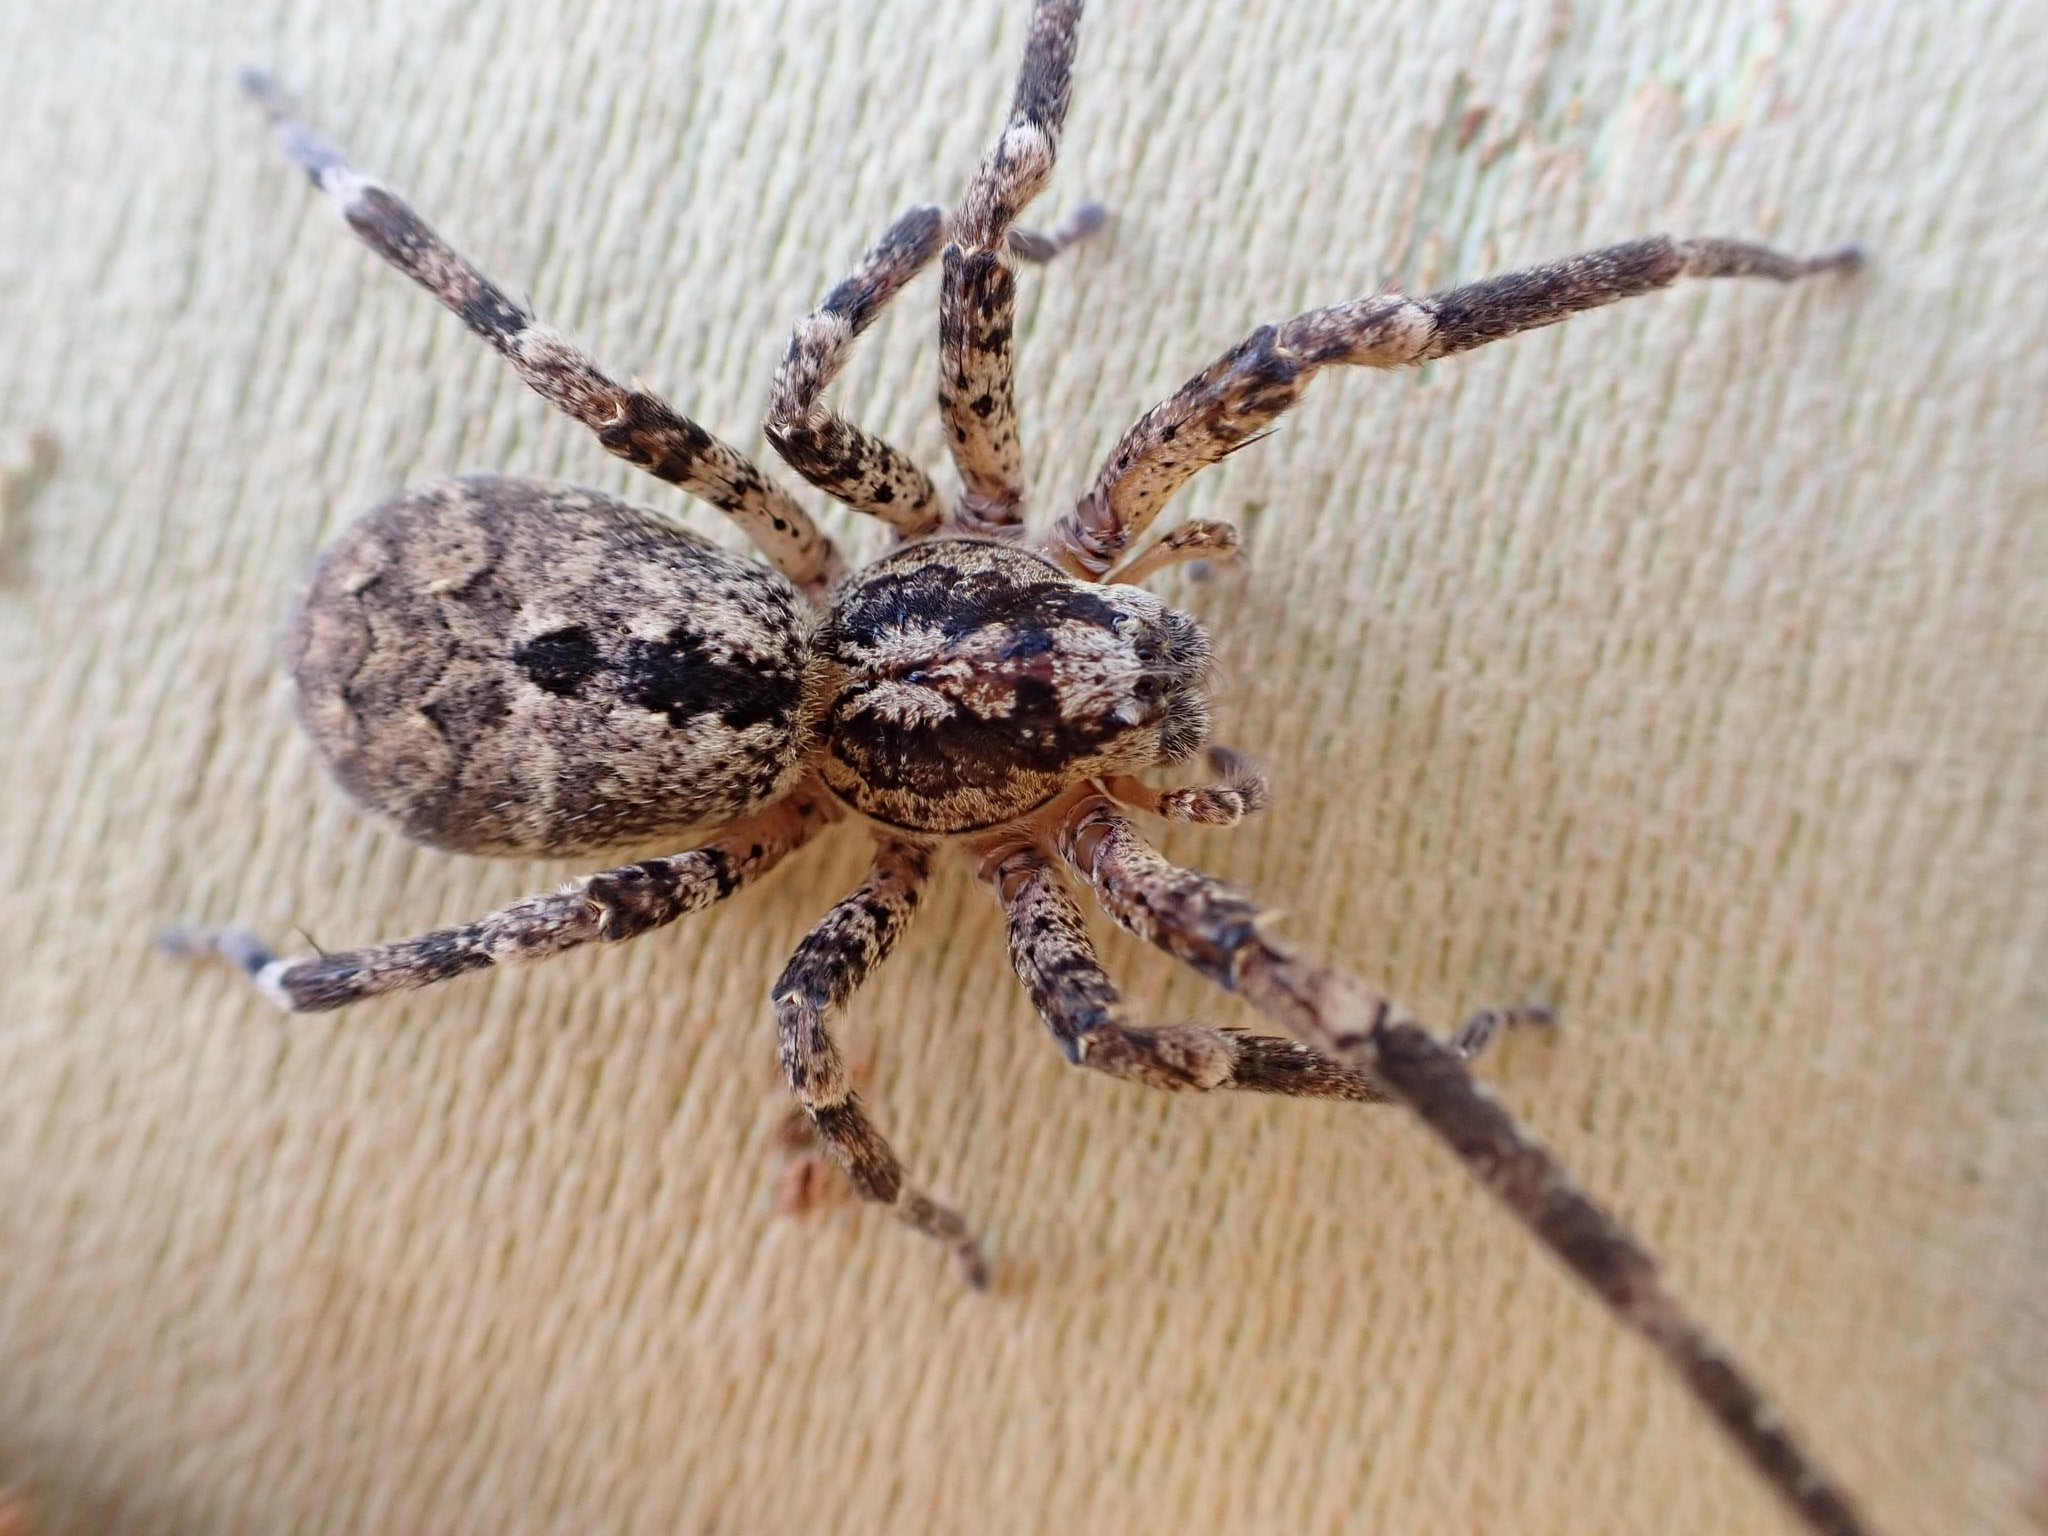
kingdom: Animalia
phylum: Arthropoda
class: Arachnida
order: Araneae
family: Zoropsidae
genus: Zoropsis
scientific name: Zoropsis spinimana
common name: Zoropsid spider
